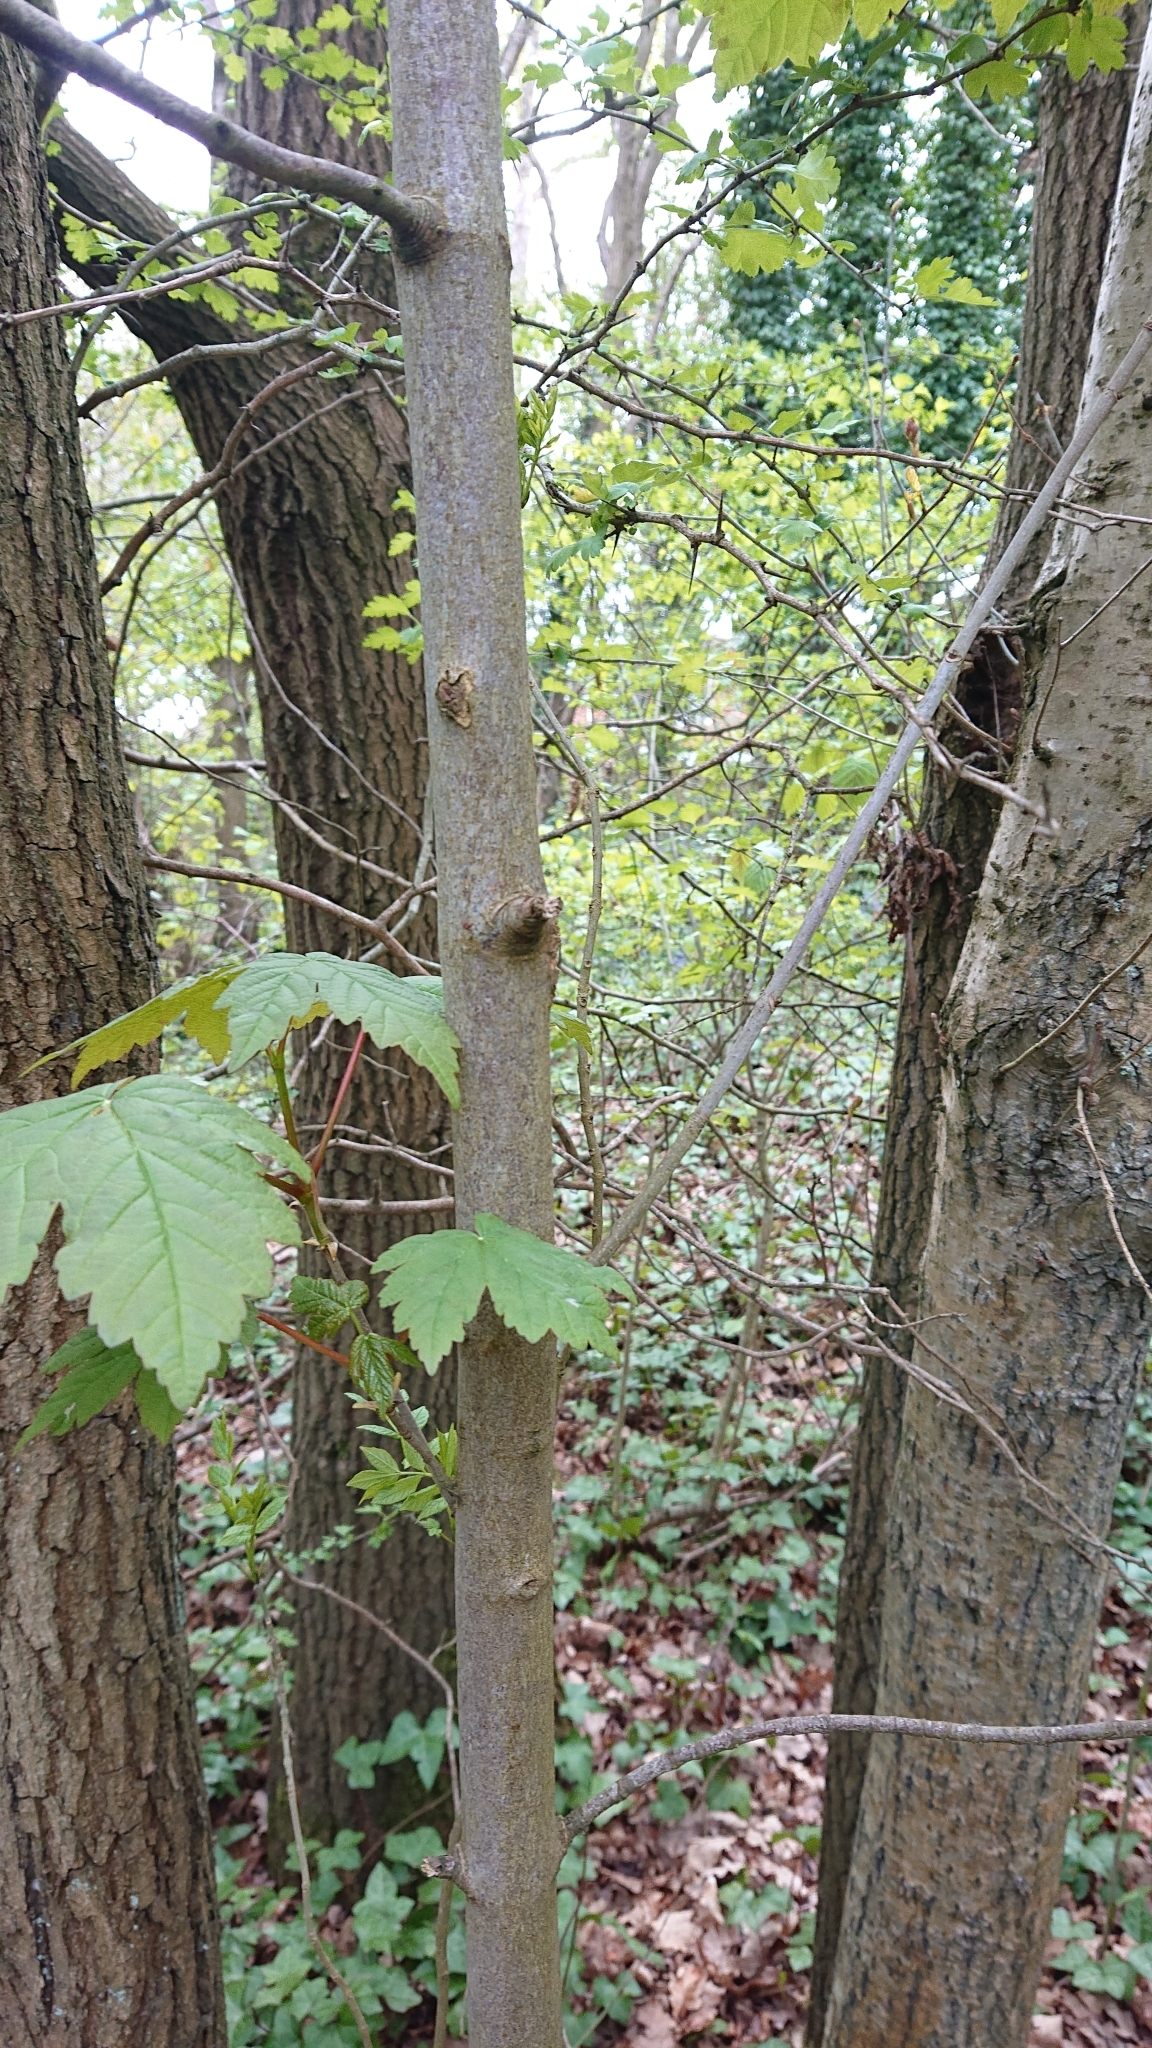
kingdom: Plantae
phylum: Tracheophyta
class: Magnoliopsida
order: Sapindales
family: Sapindaceae
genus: Acer
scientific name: Acer pseudoplatanus
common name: Sycamore
